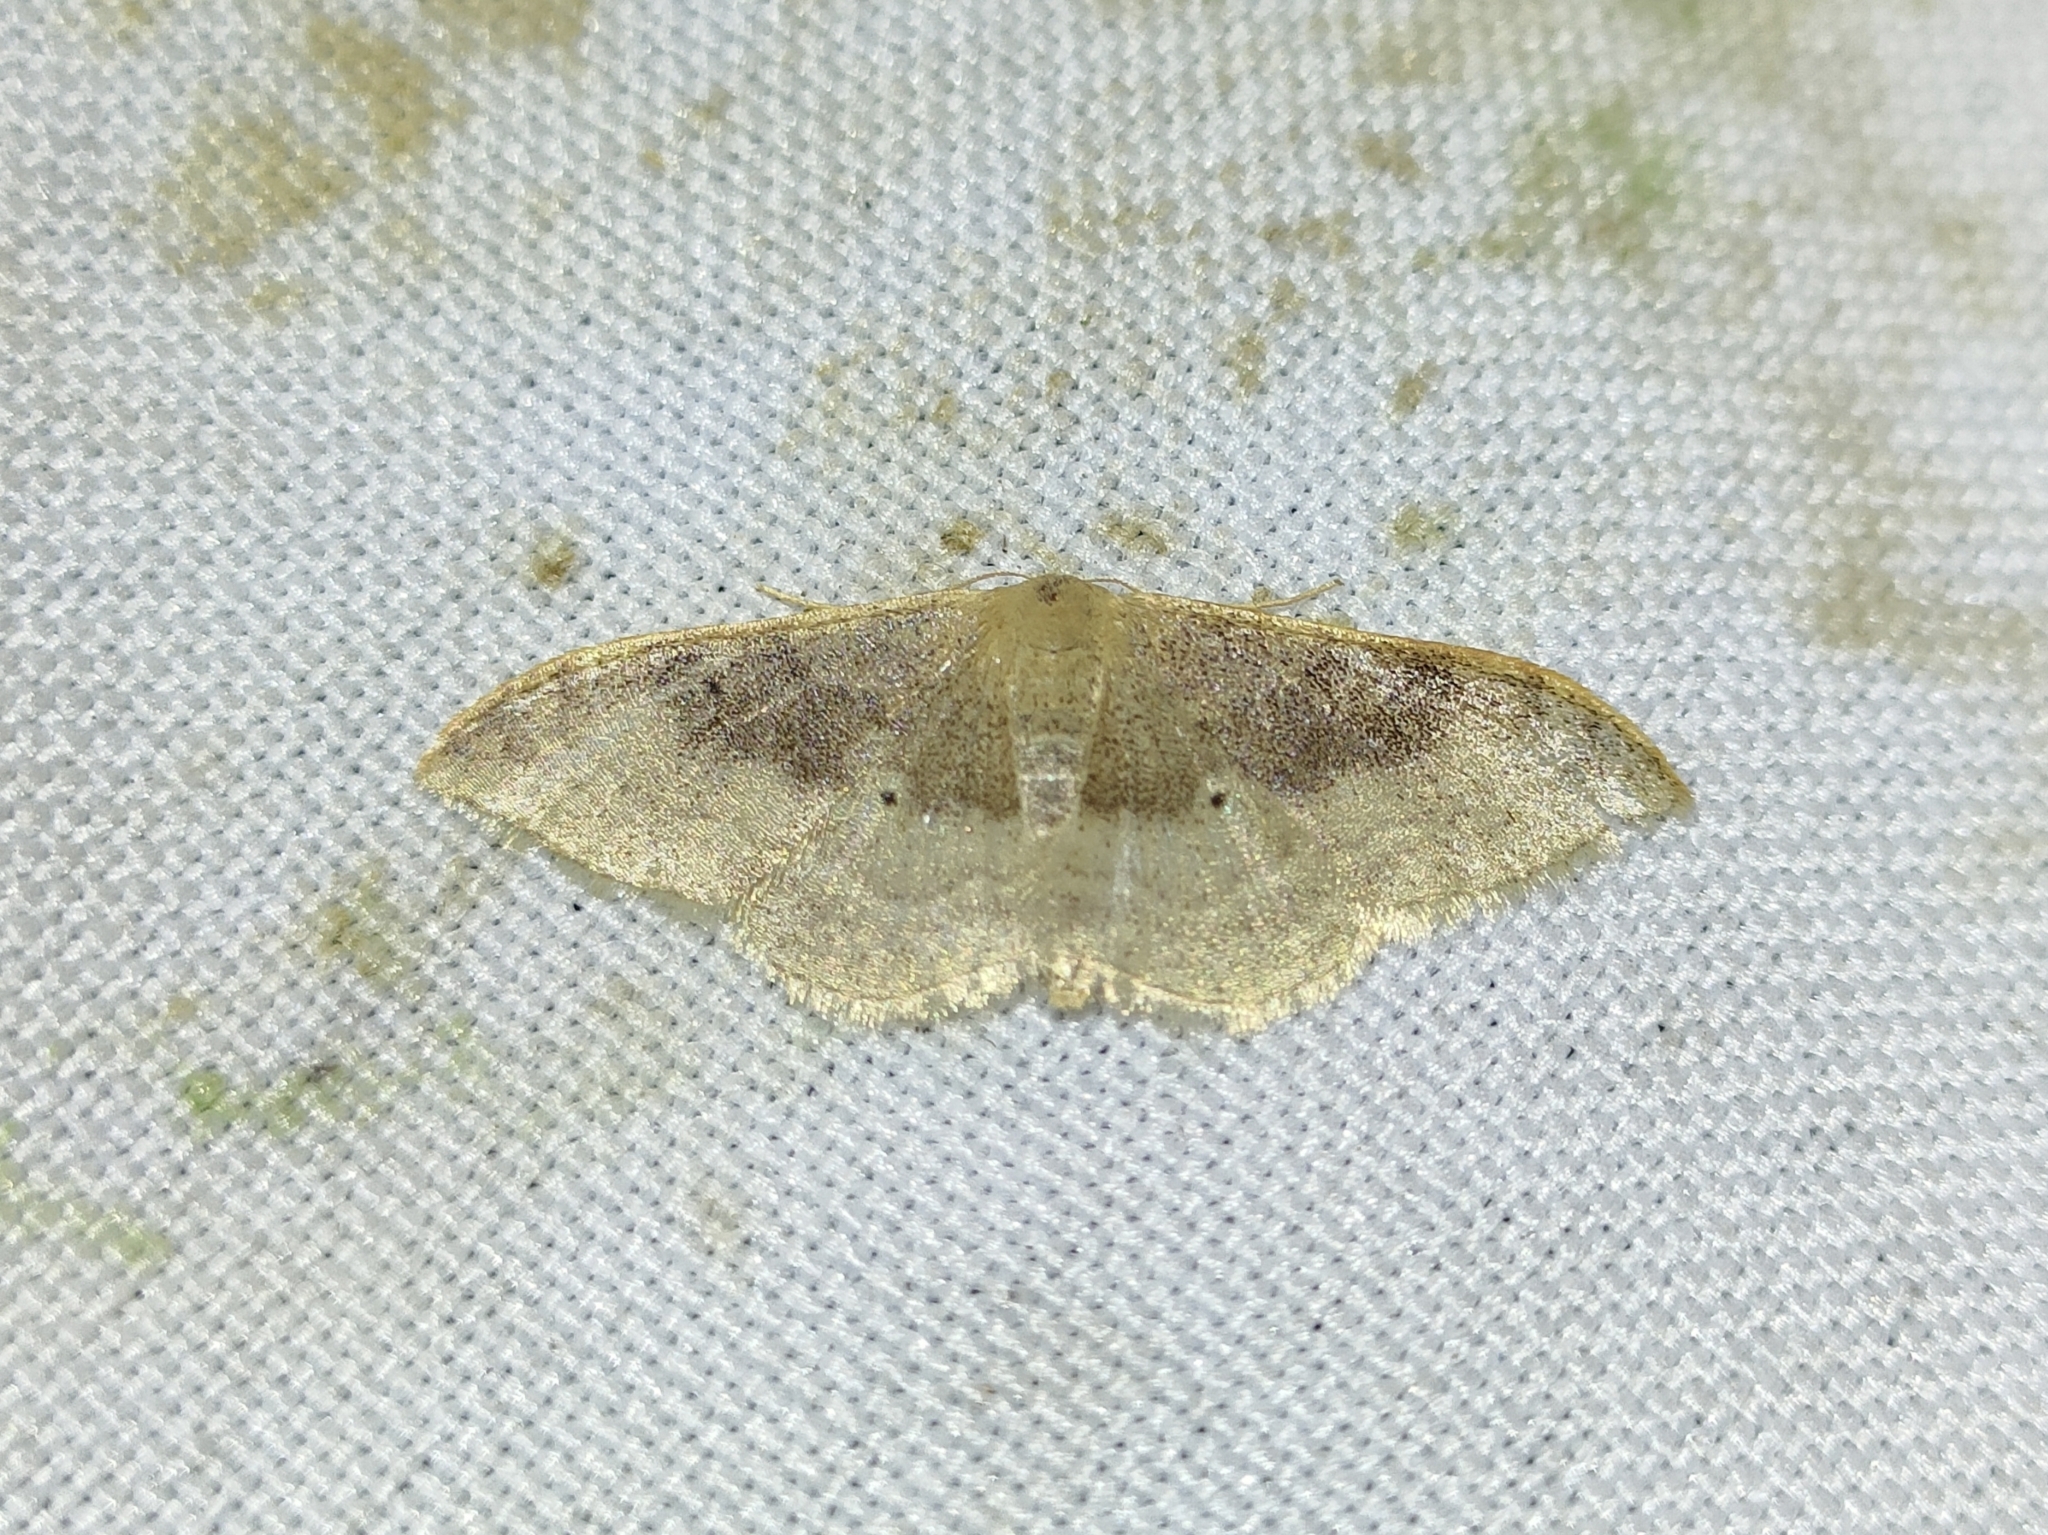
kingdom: Animalia
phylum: Arthropoda
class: Insecta
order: Lepidoptera
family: Geometridae
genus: Idaea
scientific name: Idaea degeneraria
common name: Portland ribbon wave
